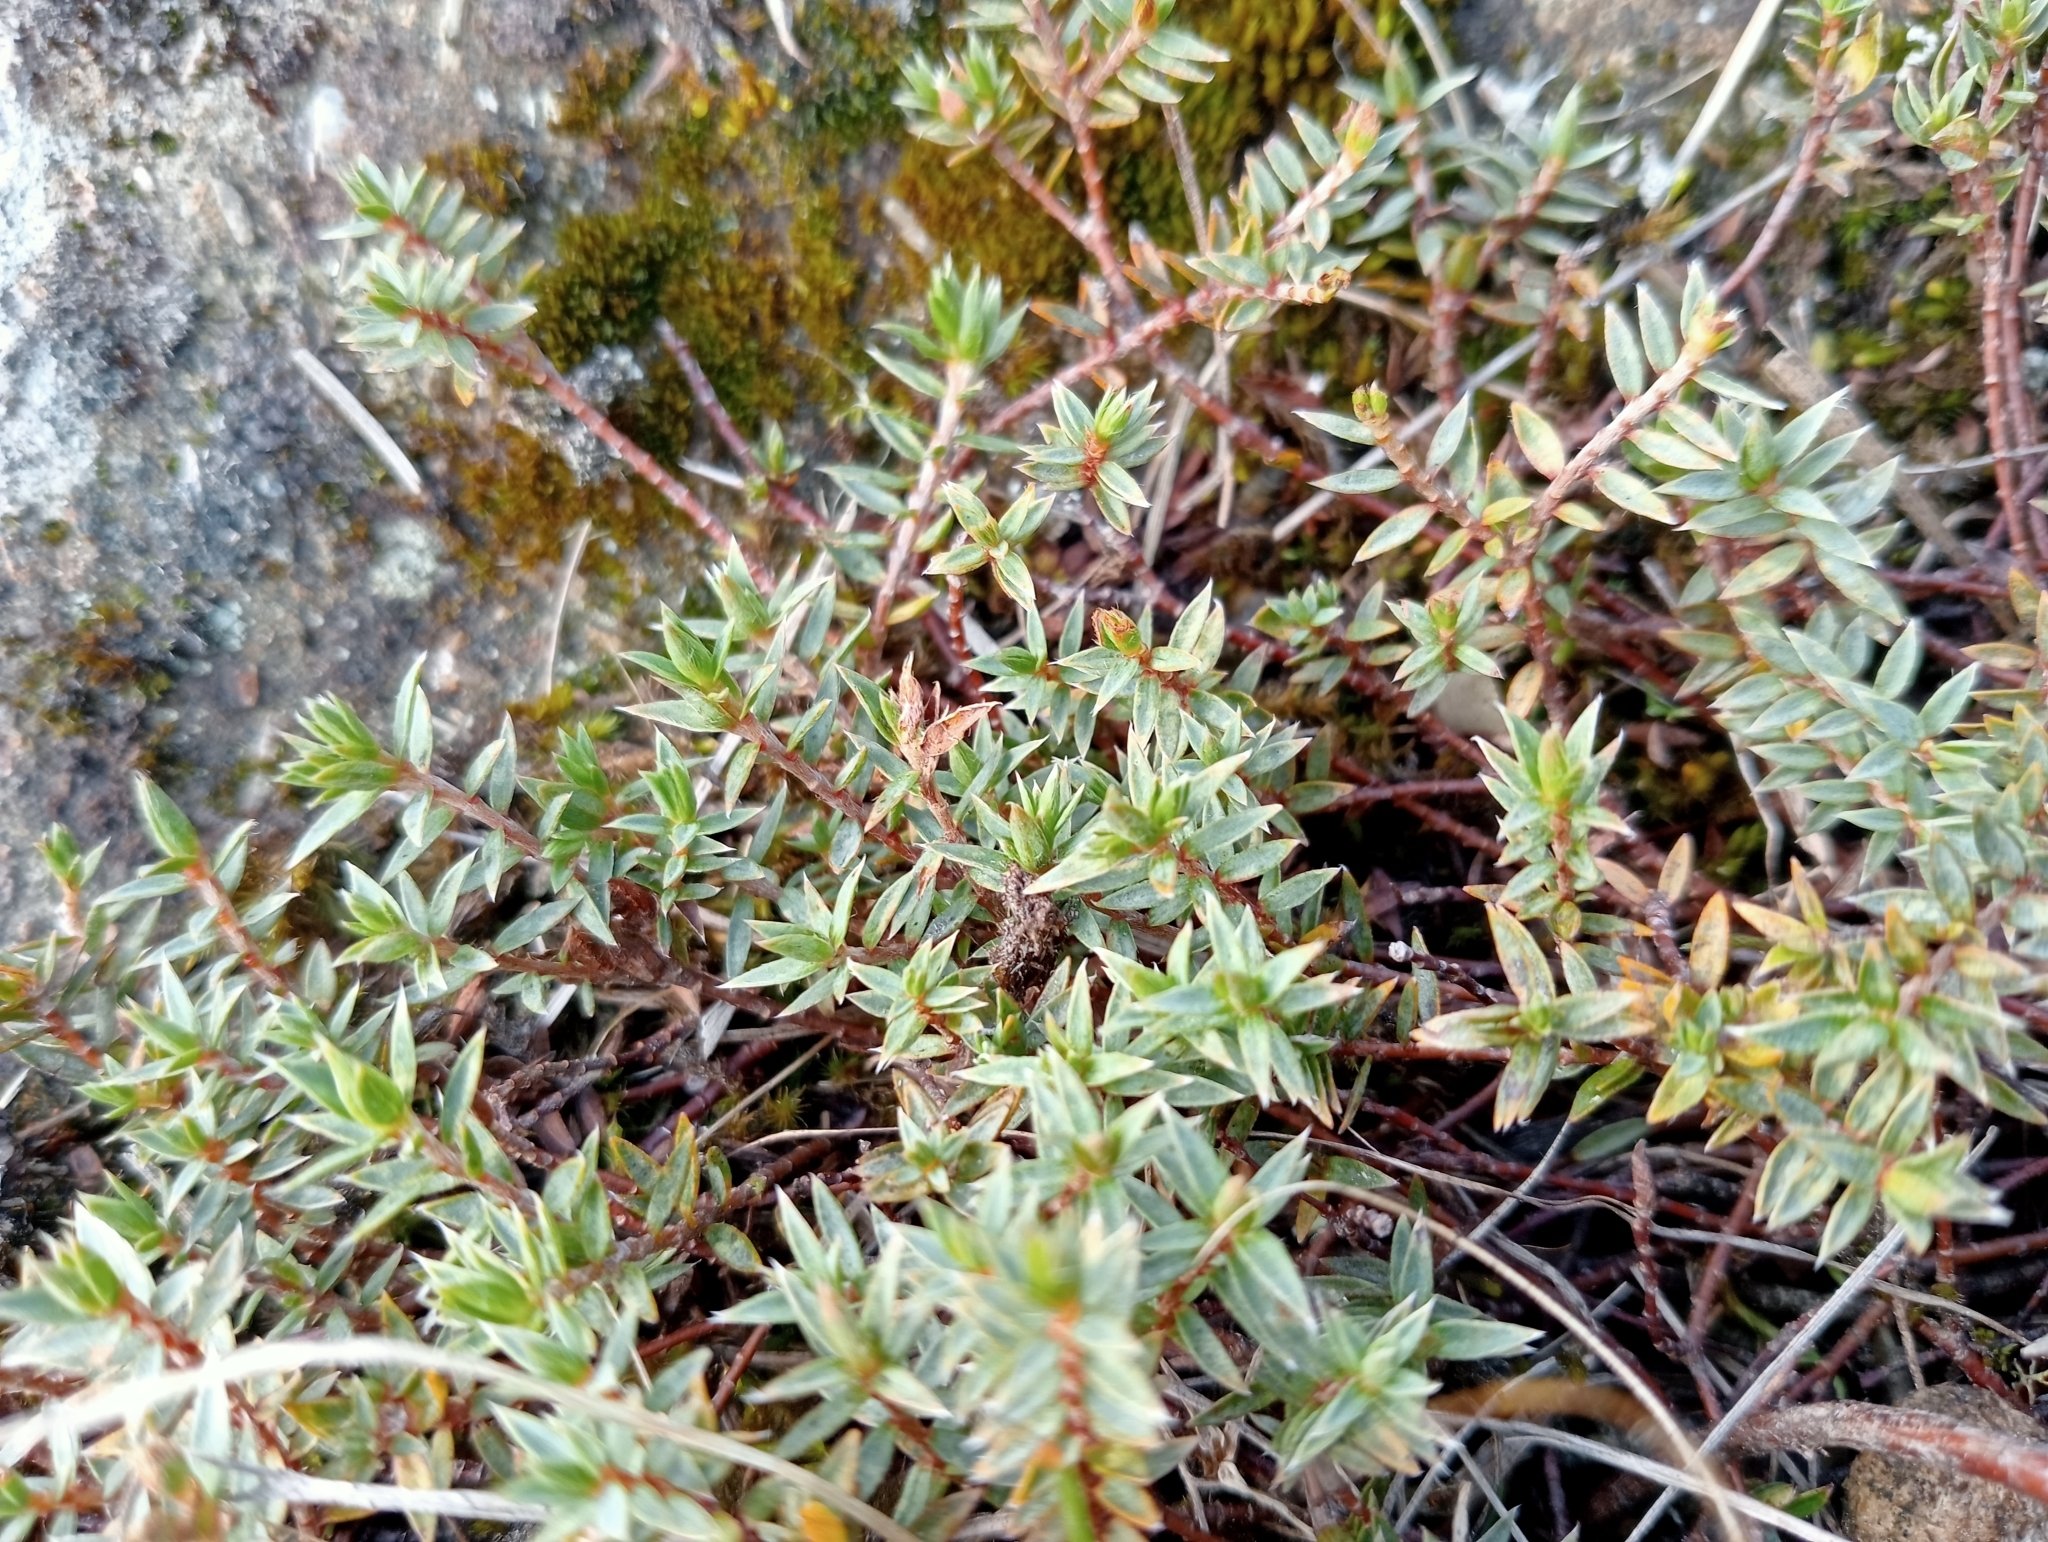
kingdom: Plantae
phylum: Tracheophyta
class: Magnoliopsida
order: Malvales
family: Thymelaeaceae
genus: Pimelea
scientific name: Pimelea oreophila
